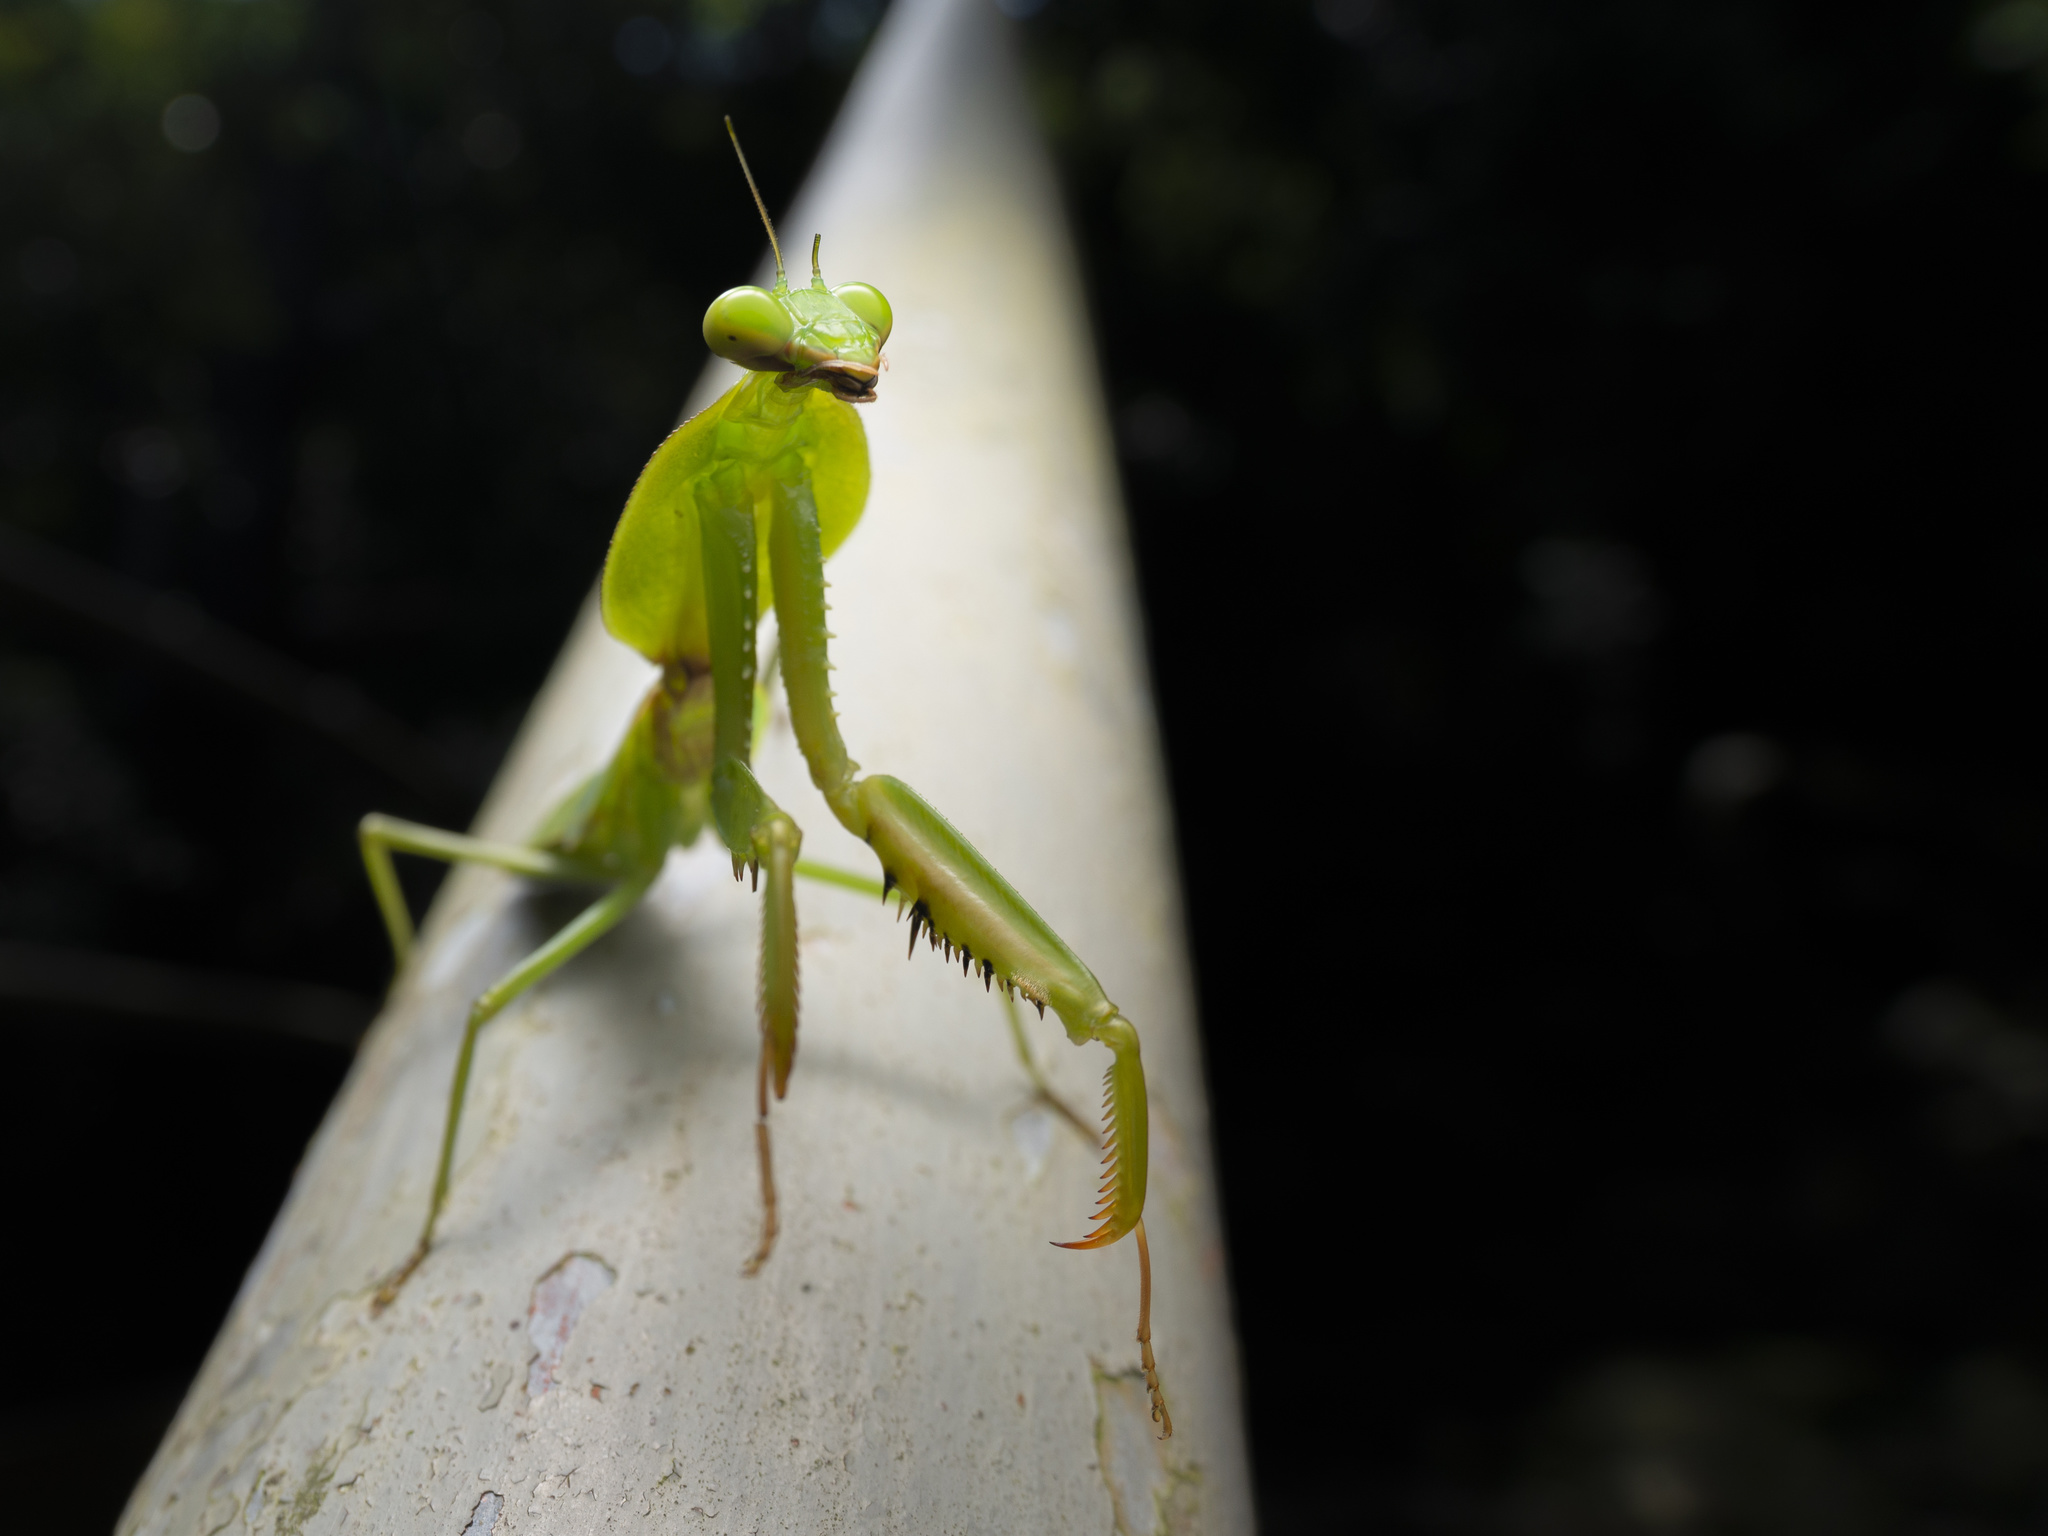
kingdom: Animalia
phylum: Arthropoda
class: Insecta
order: Mantodea
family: Mantidae
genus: Rhombodera
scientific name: Rhombodera valida
